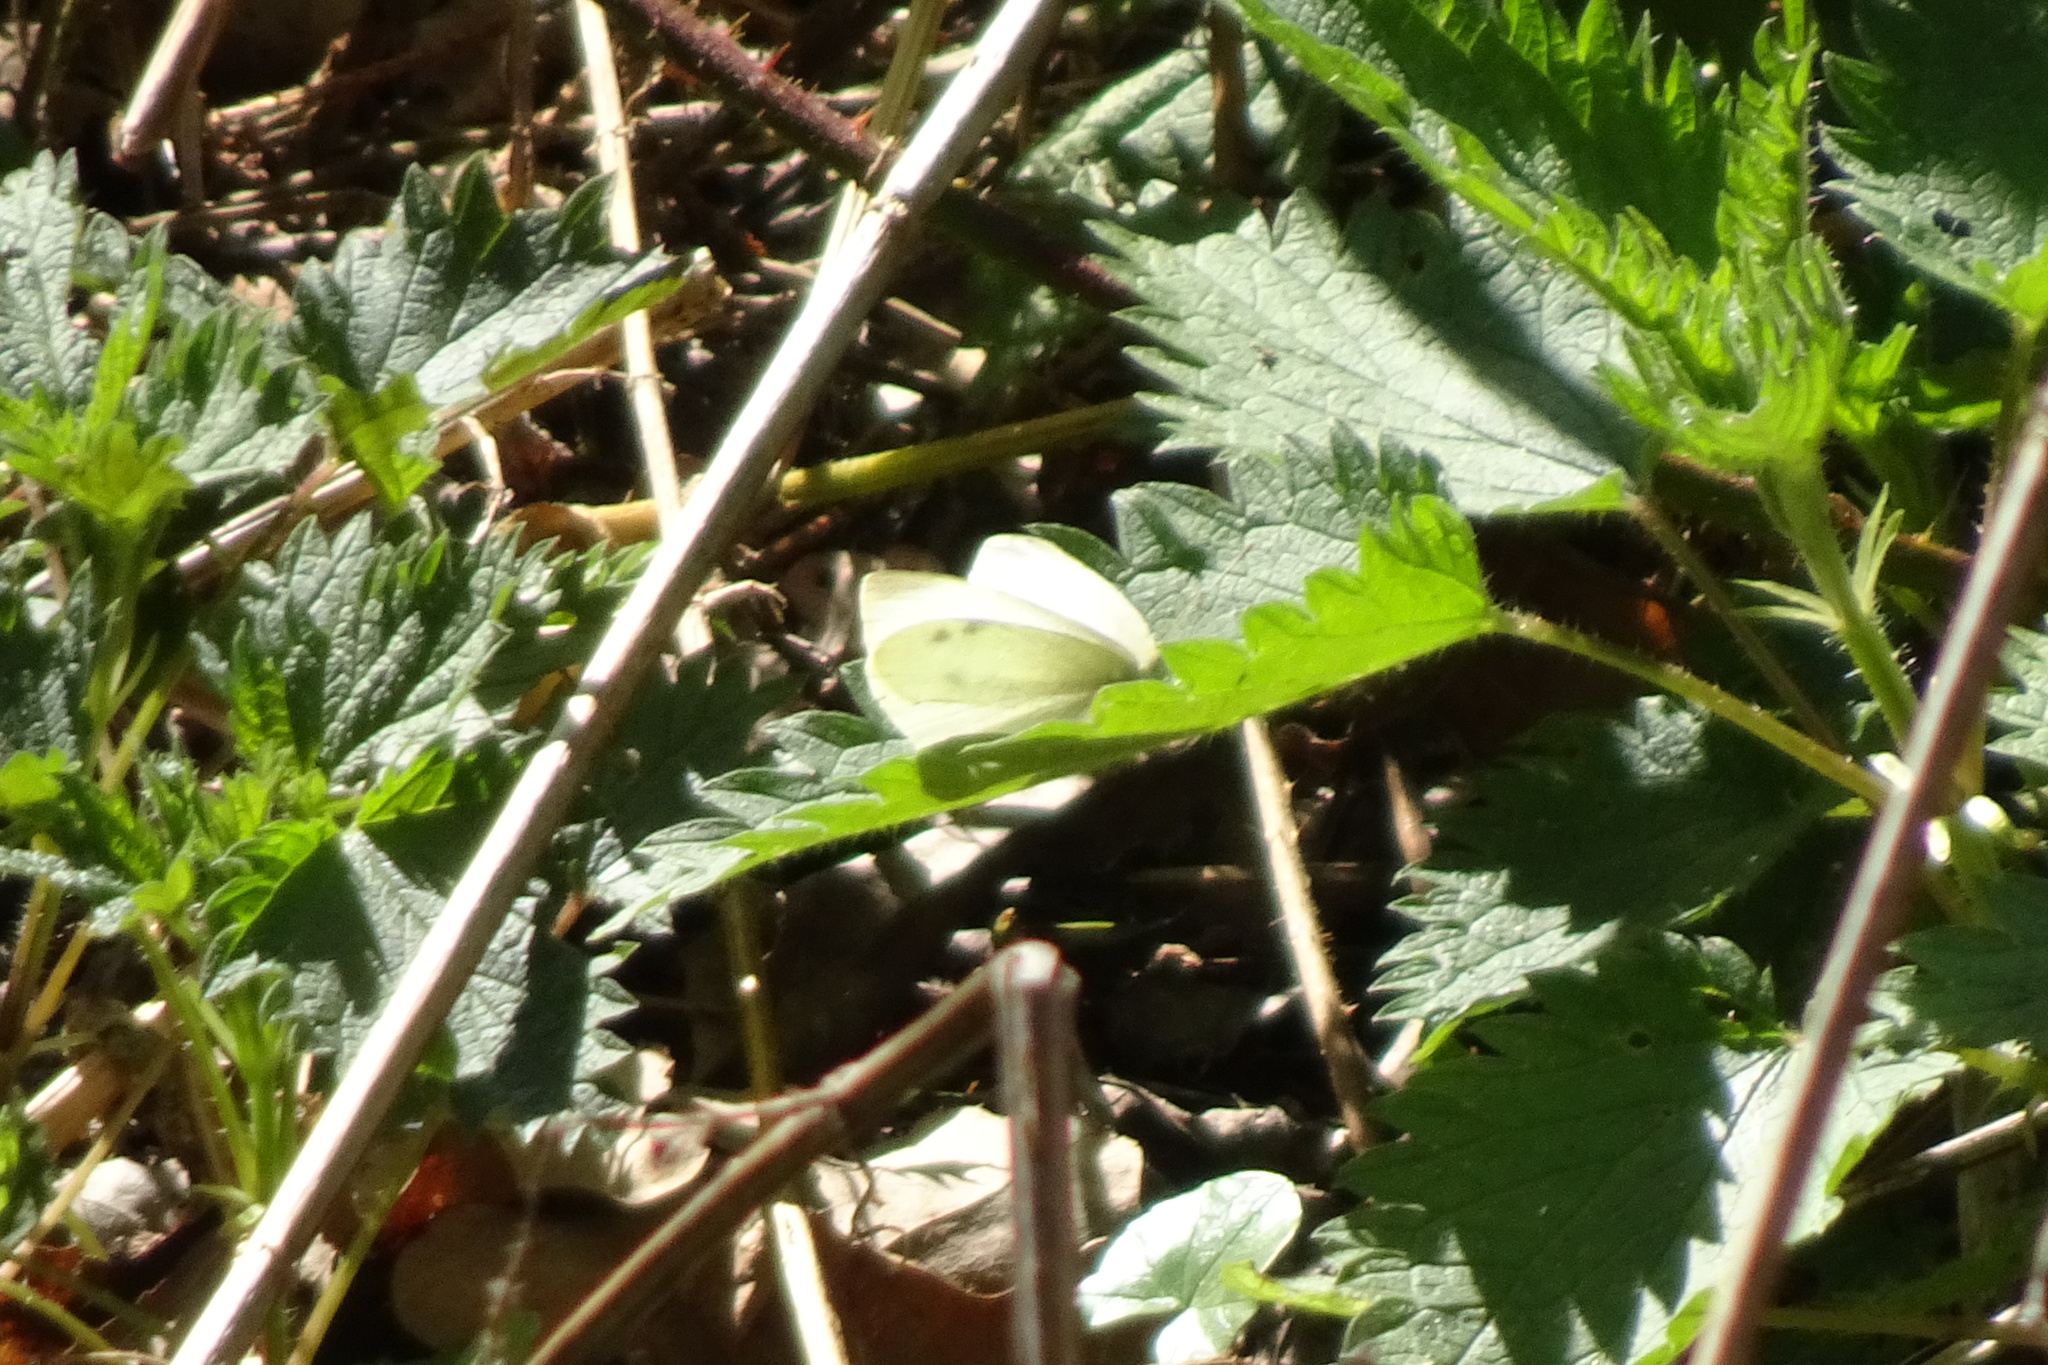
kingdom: Animalia
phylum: Arthropoda
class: Insecta
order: Lepidoptera
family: Pieridae
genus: Pieris
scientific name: Pieris rapae
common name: Small white
